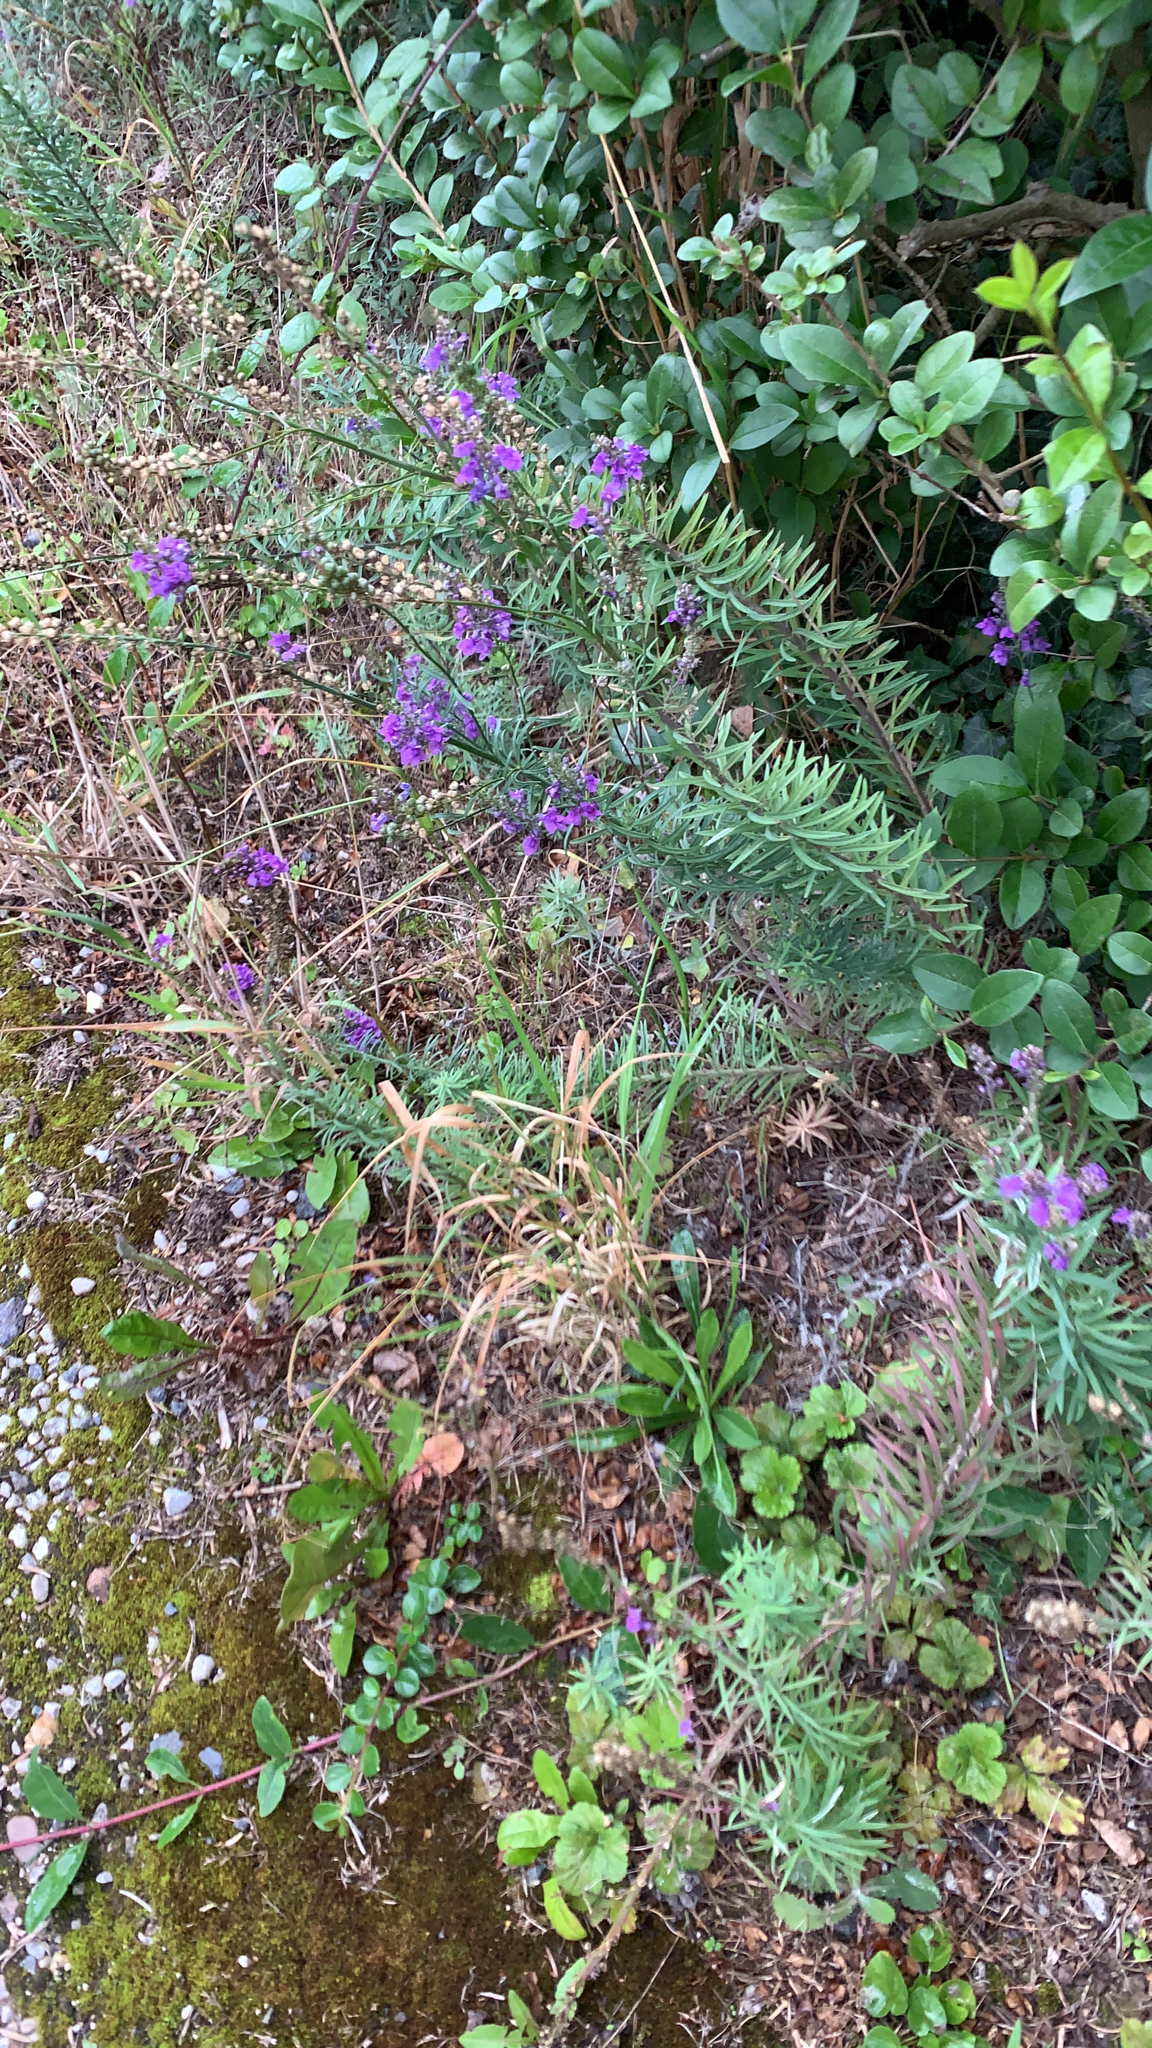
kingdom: Plantae
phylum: Tracheophyta
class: Magnoliopsida
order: Lamiales
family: Plantaginaceae
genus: Linaria
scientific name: Linaria purpurea
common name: Purple toadflax
